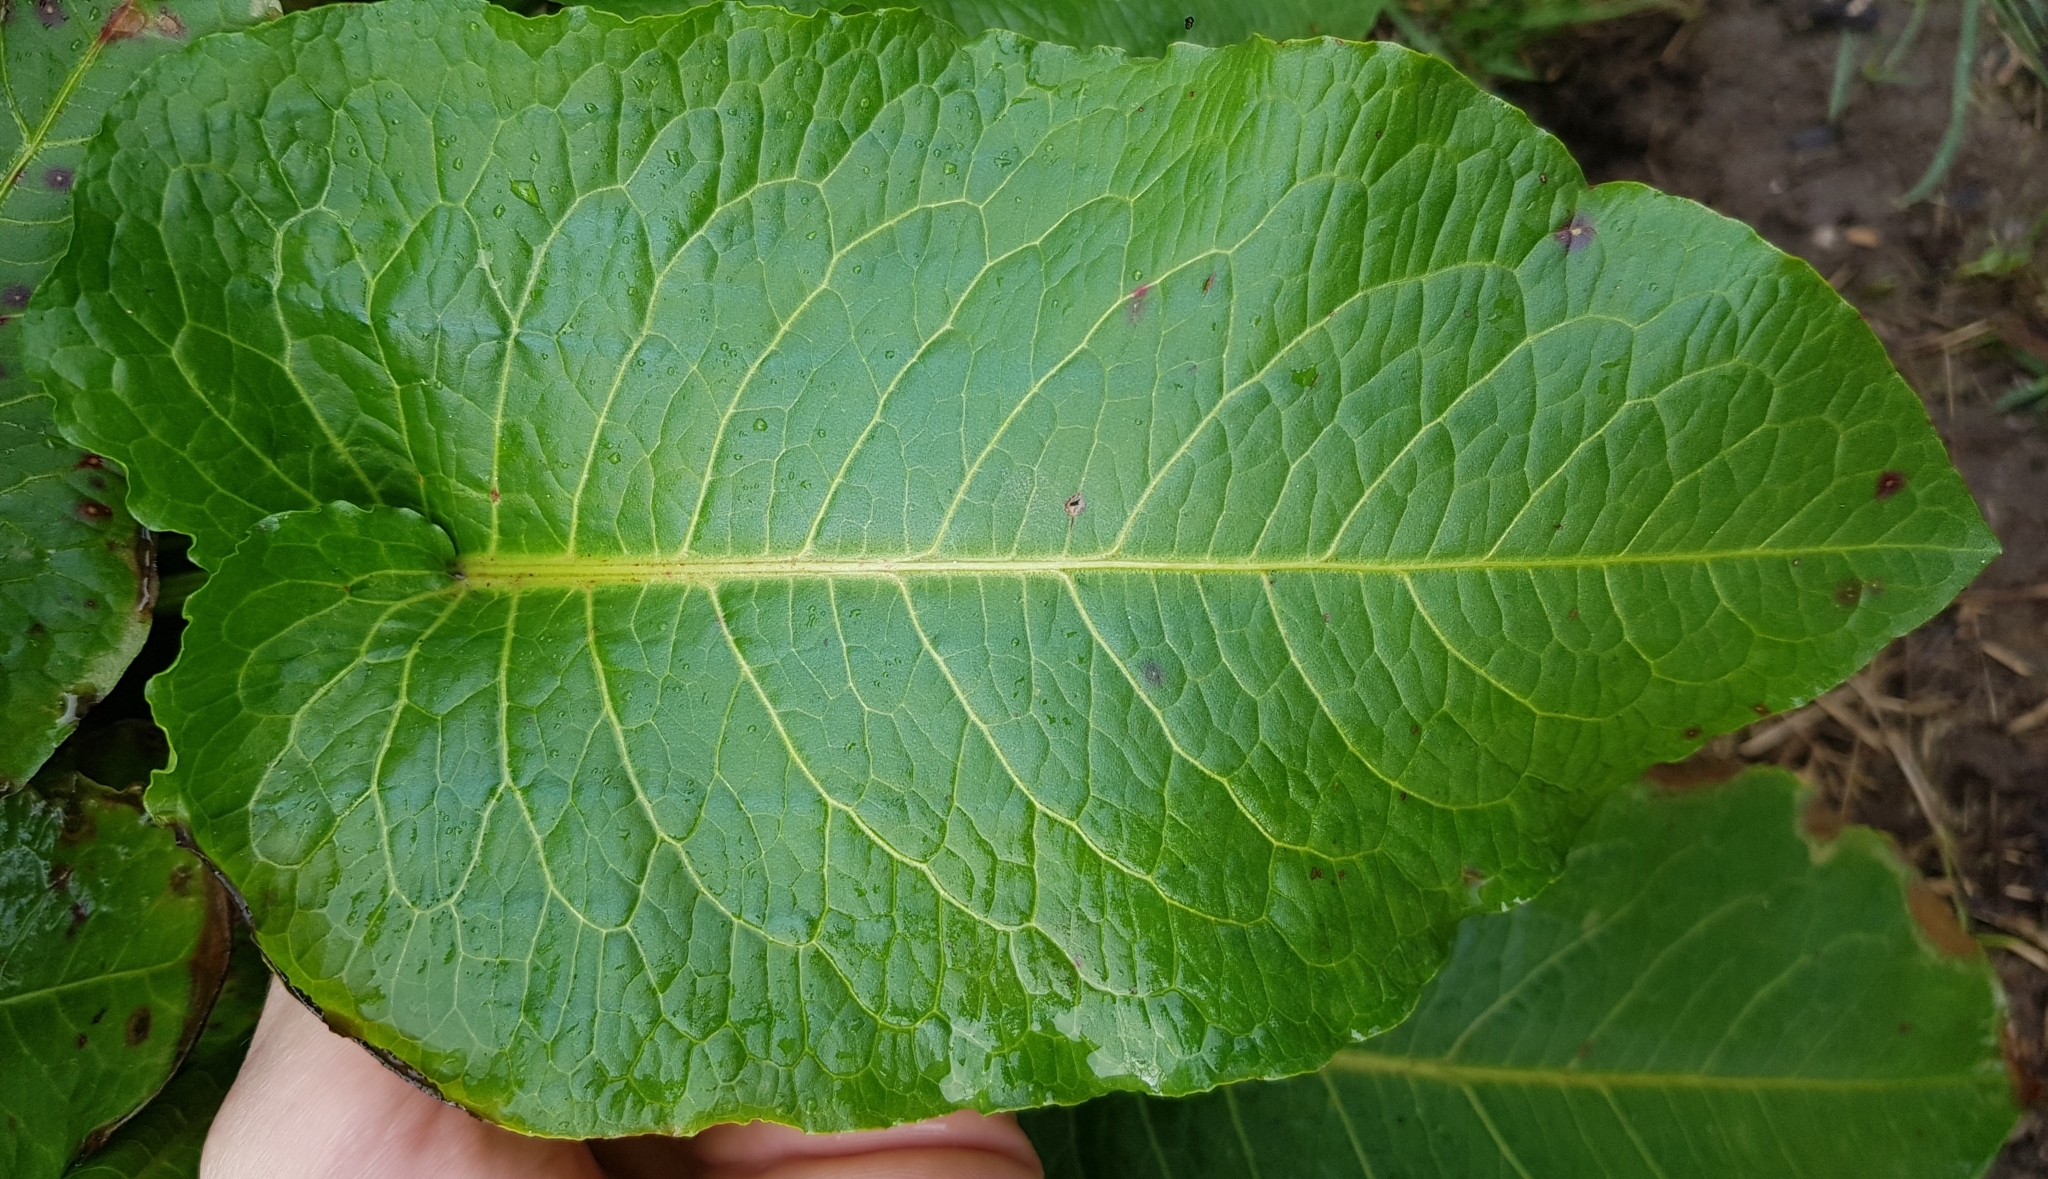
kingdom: Plantae
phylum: Tracheophyta
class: Magnoliopsida
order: Caryophyllales
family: Polygonaceae
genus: Rumex
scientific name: Rumex obtusifolius
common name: Bitter dock
